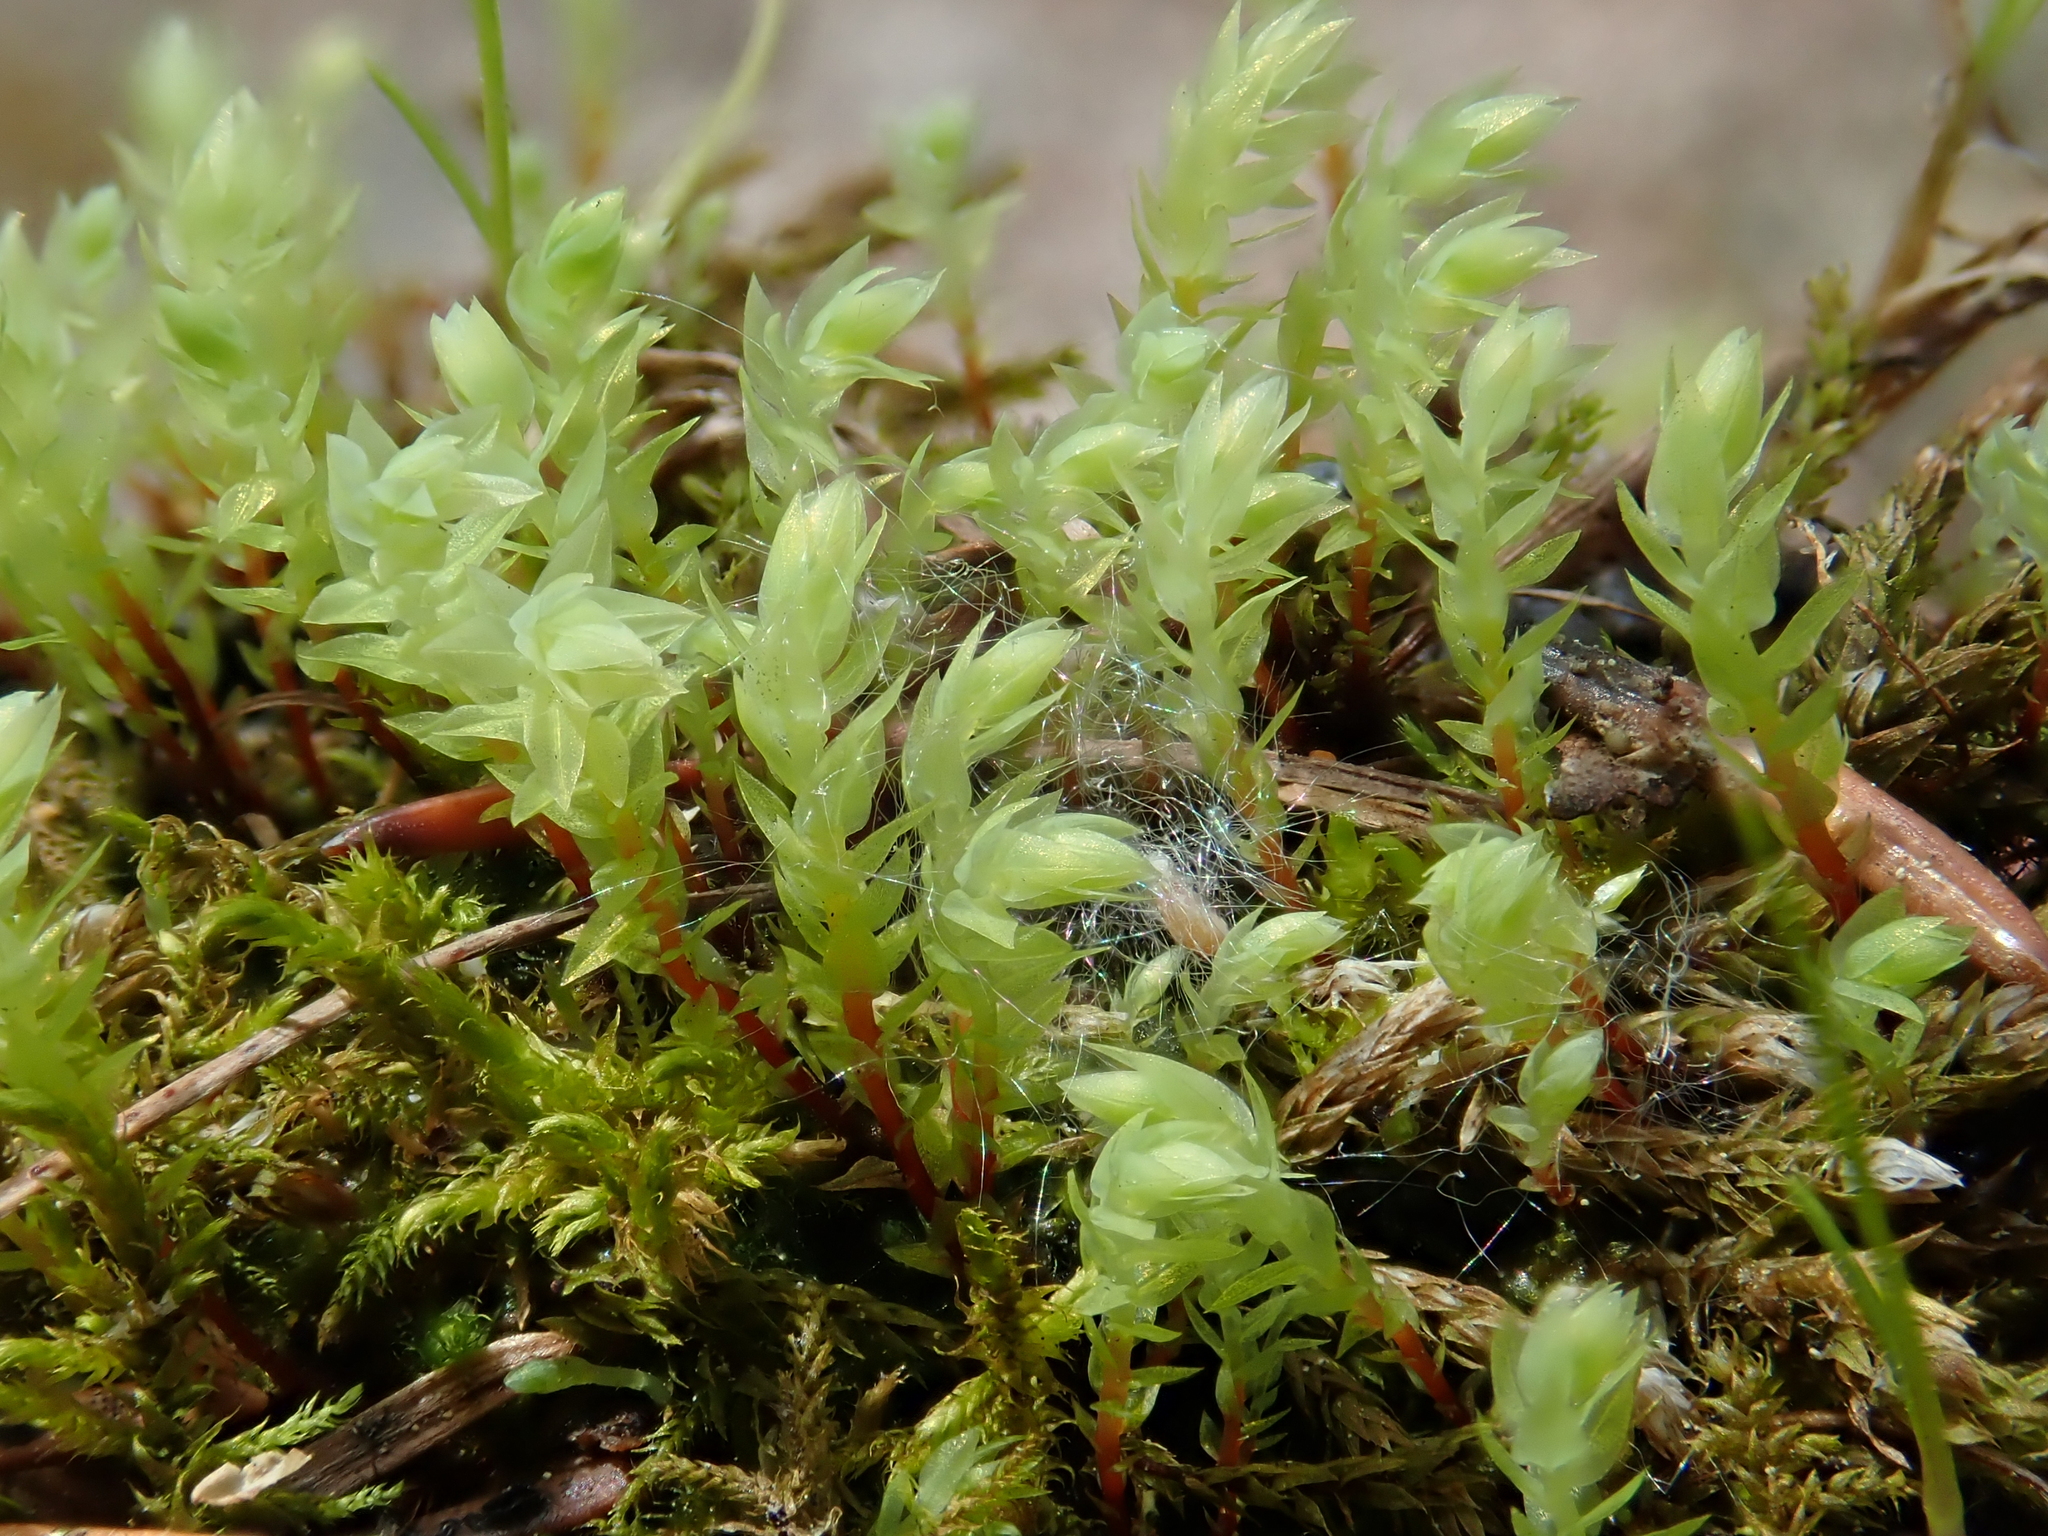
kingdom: Plantae
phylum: Bryophyta
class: Bryopsida
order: Bryales
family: Mniaceae
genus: Pohlia
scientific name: Pohlia wahlenbergii
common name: Wahlenberg's nodding moss
